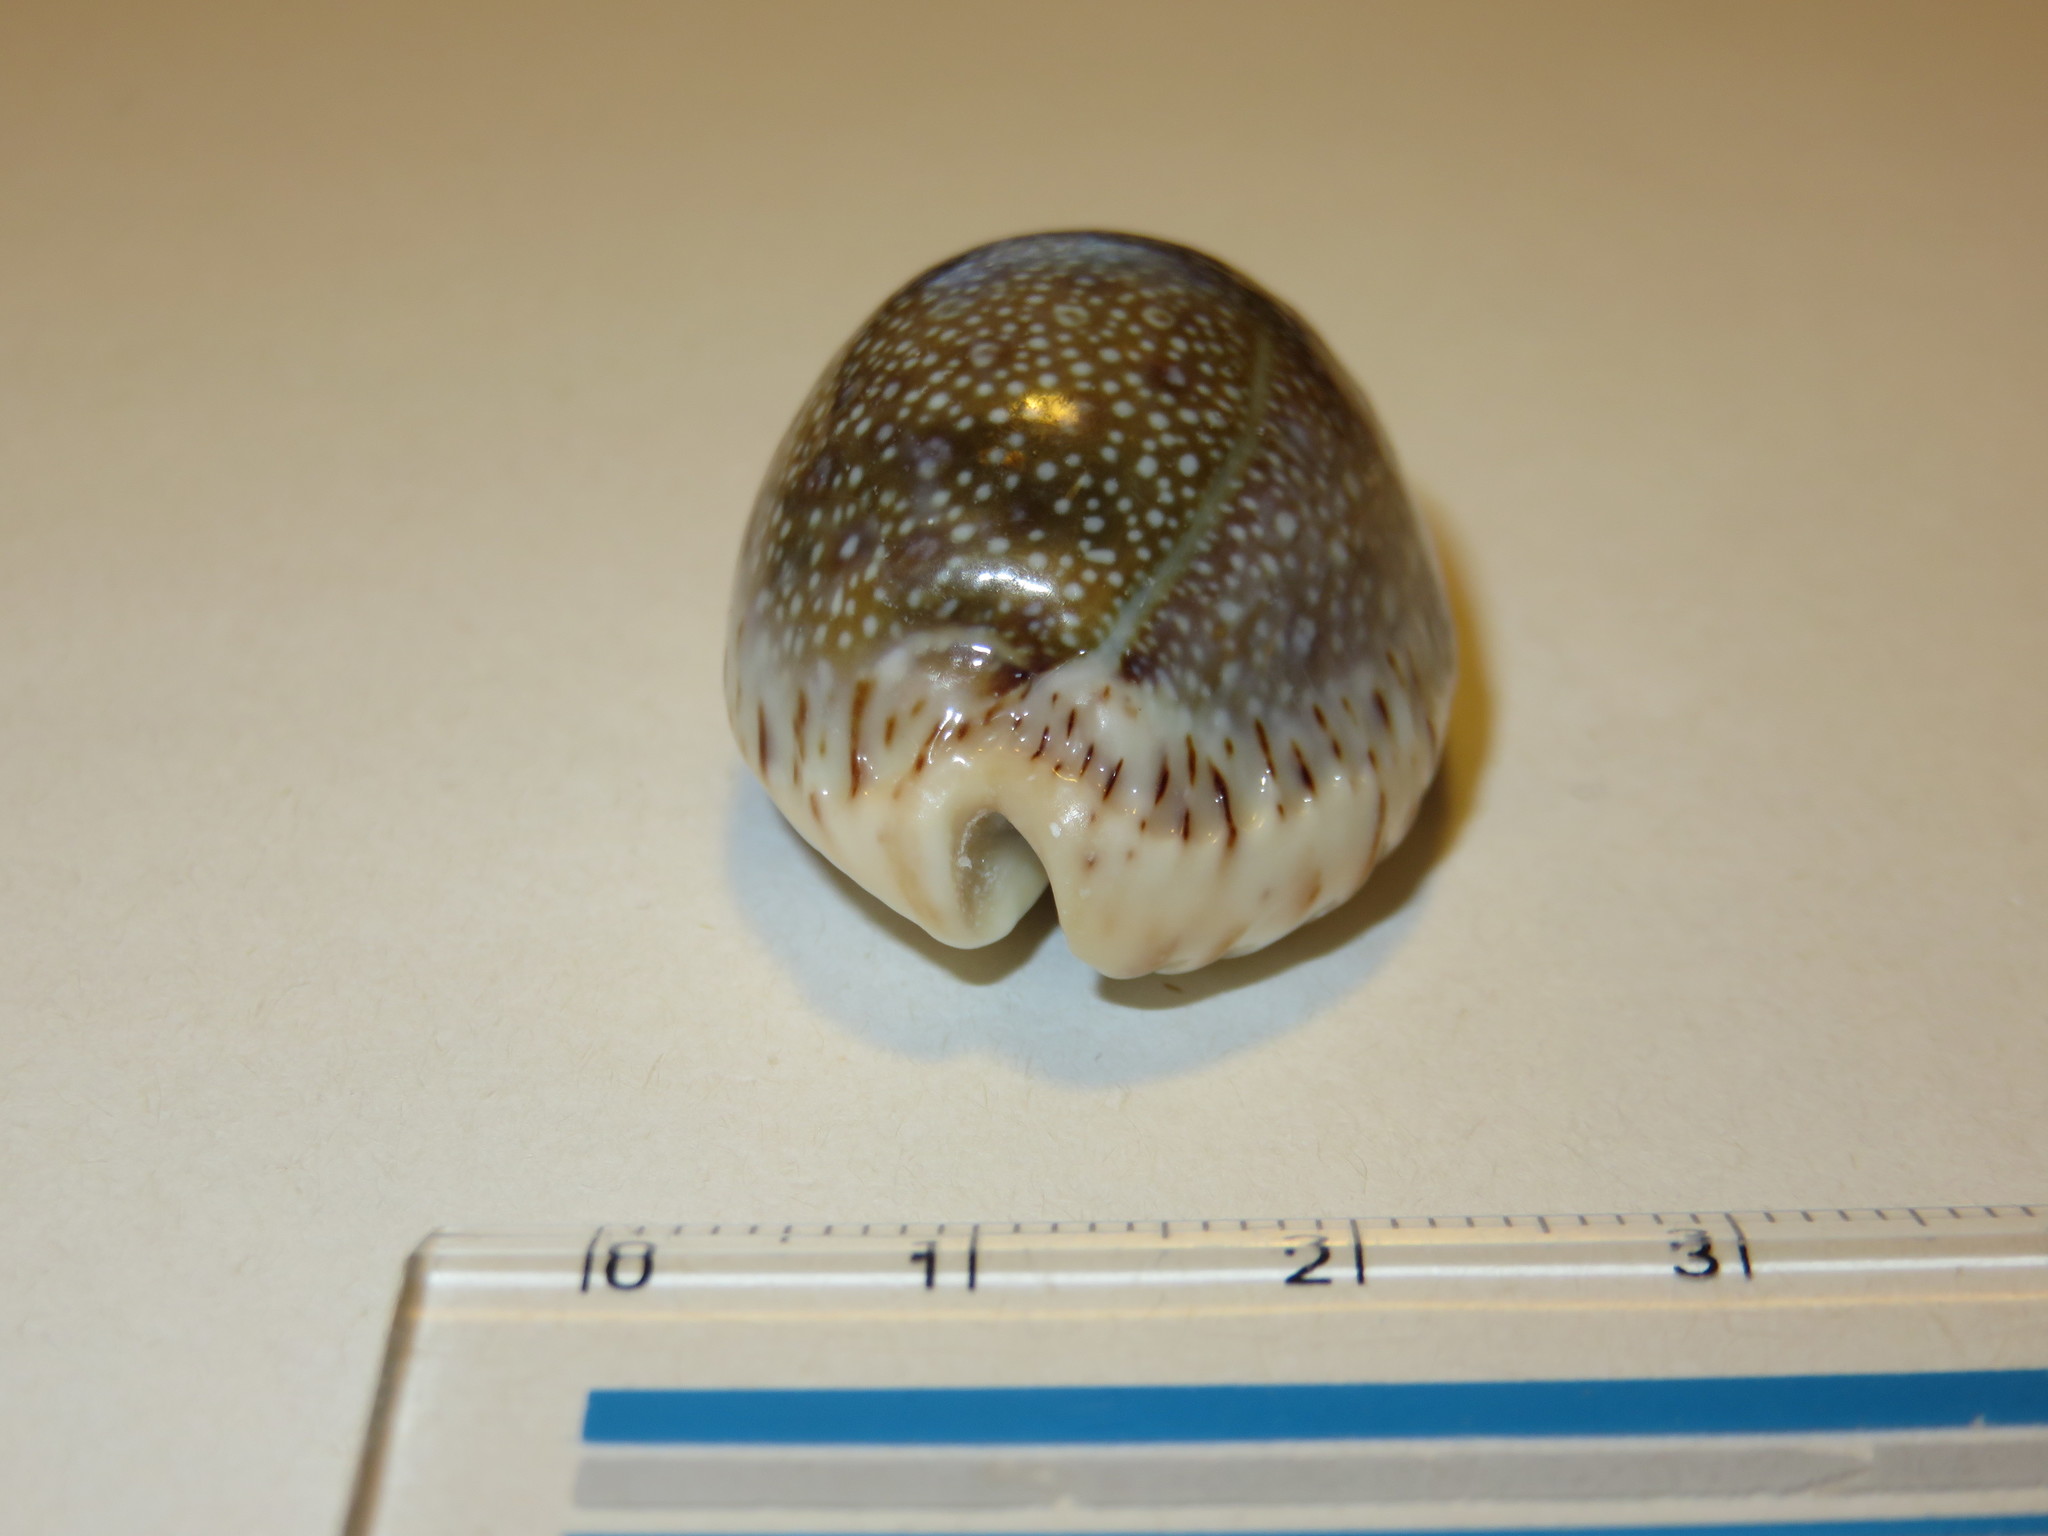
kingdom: Animalia
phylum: Mollusca
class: Gastropoda
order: Littorinimorpha
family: Cypraeidae
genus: Naria
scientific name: Naria erosa
